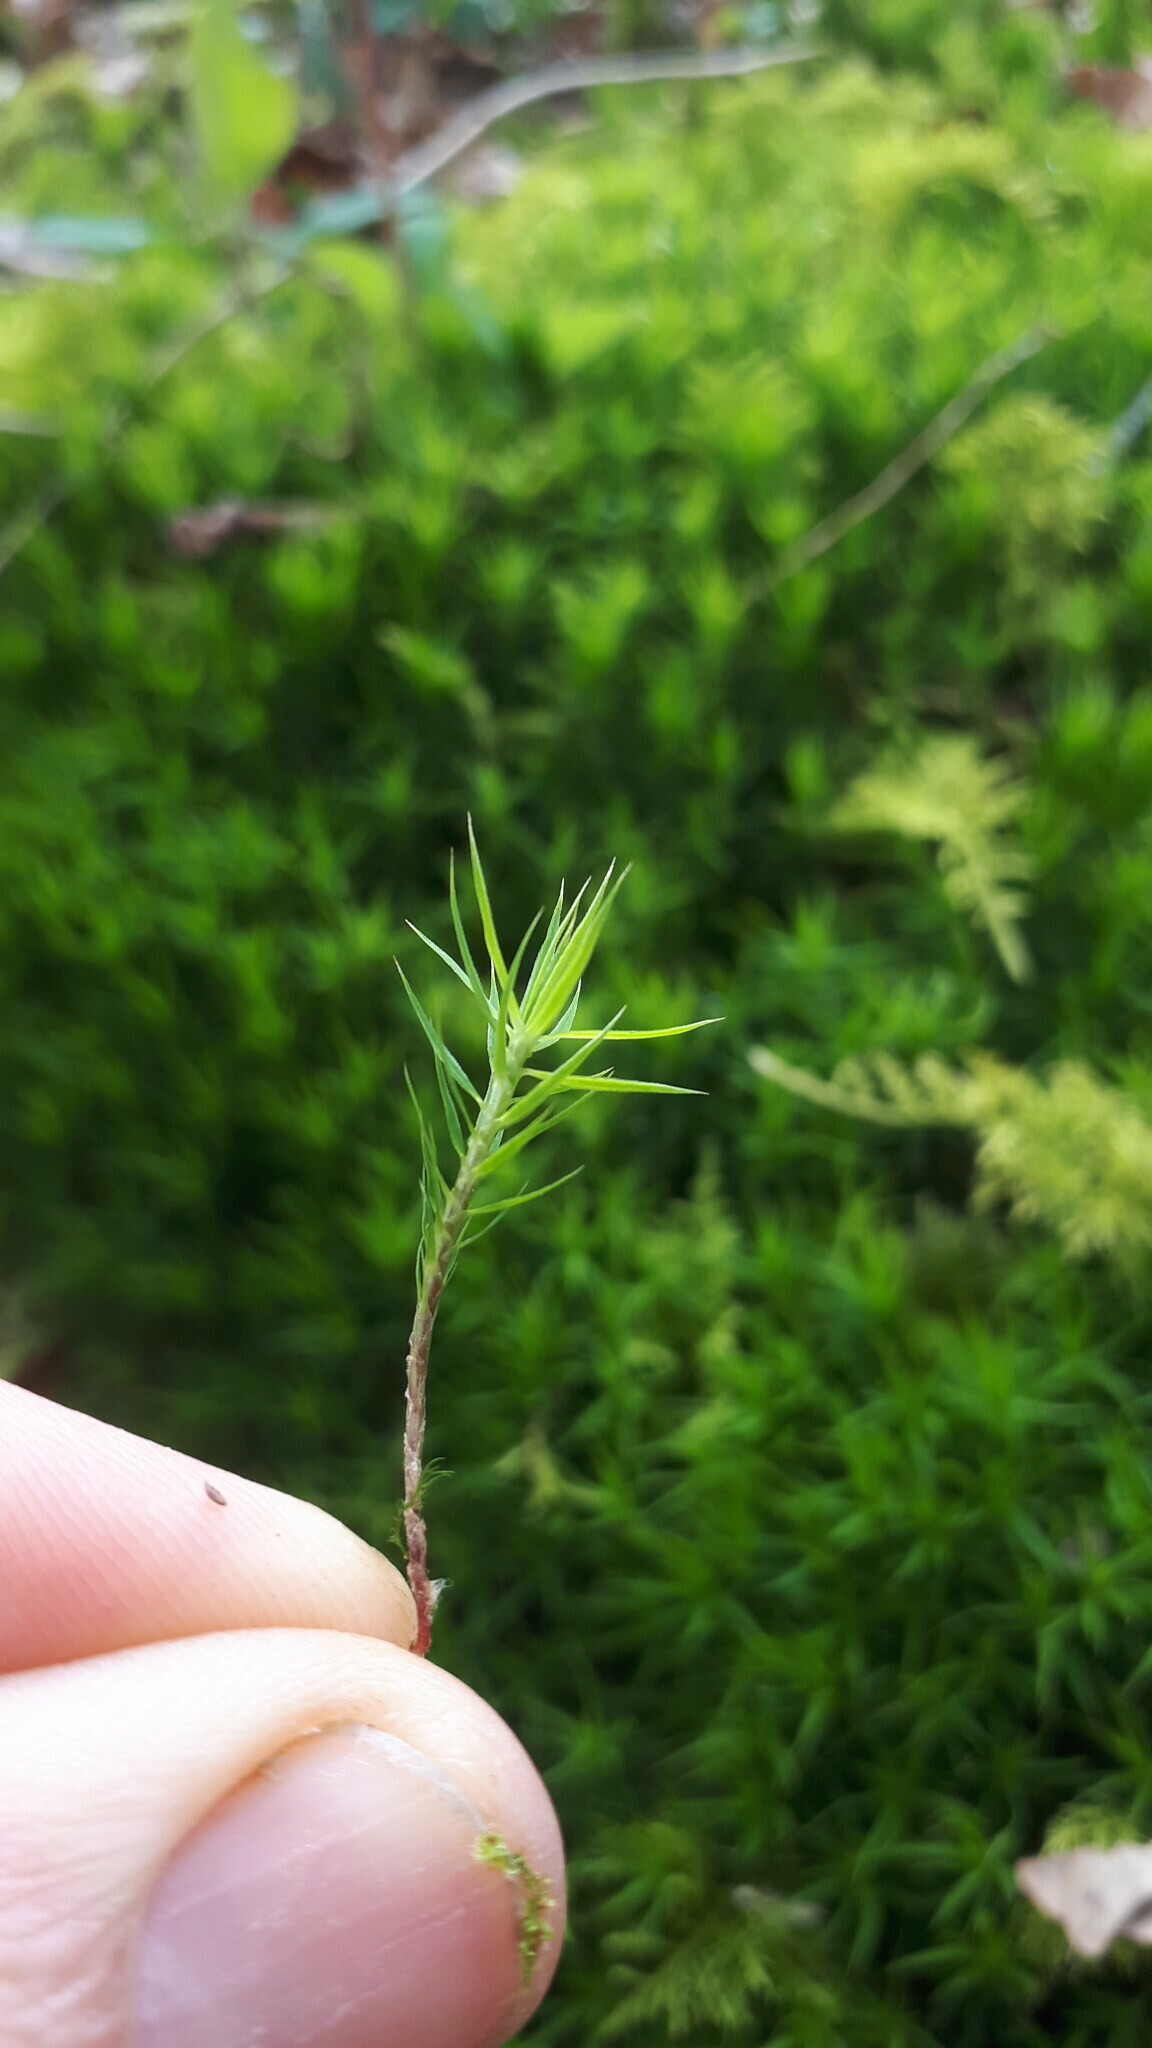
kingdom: Plantae
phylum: Bryophyta
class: Polytrichopsida
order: Polytrichales
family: Polytrichaceae
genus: Polytrichum
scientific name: Polytrichum formosum
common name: Bank haircap moss
